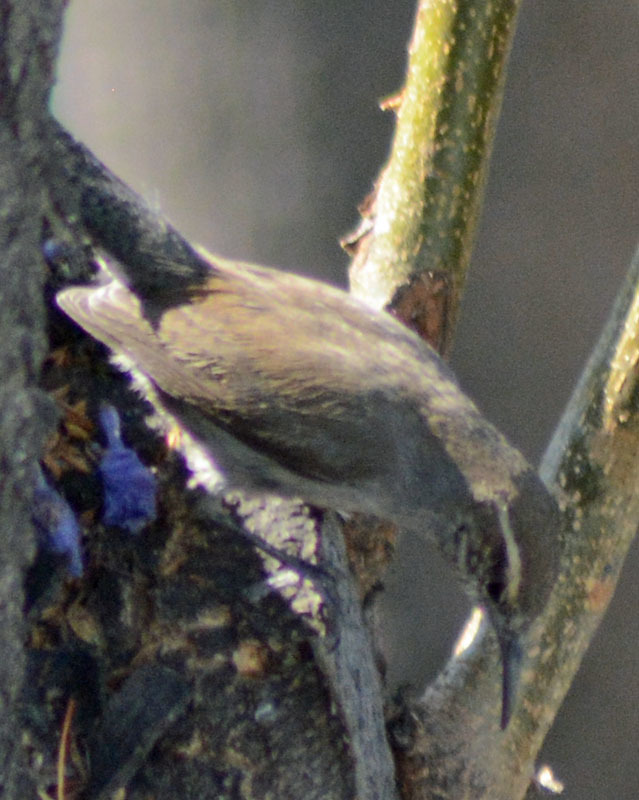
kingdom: Animalia
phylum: Chordata
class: Aves
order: Passeriformes
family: Troglodytidae
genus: Thryomanes
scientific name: Thryomanes bewickii
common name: Bewick's wren
